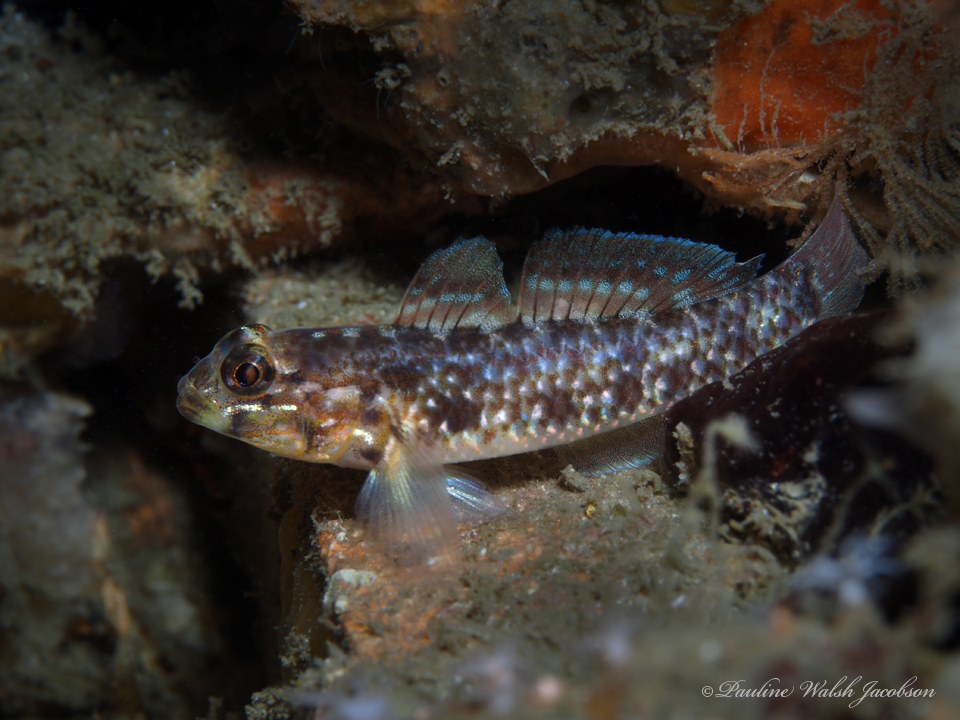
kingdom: Animalia
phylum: Chordata
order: Perciformes
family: Gobiidae
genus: Coryphopterus
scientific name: Coryphopterus dicrus
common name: Colon goby
